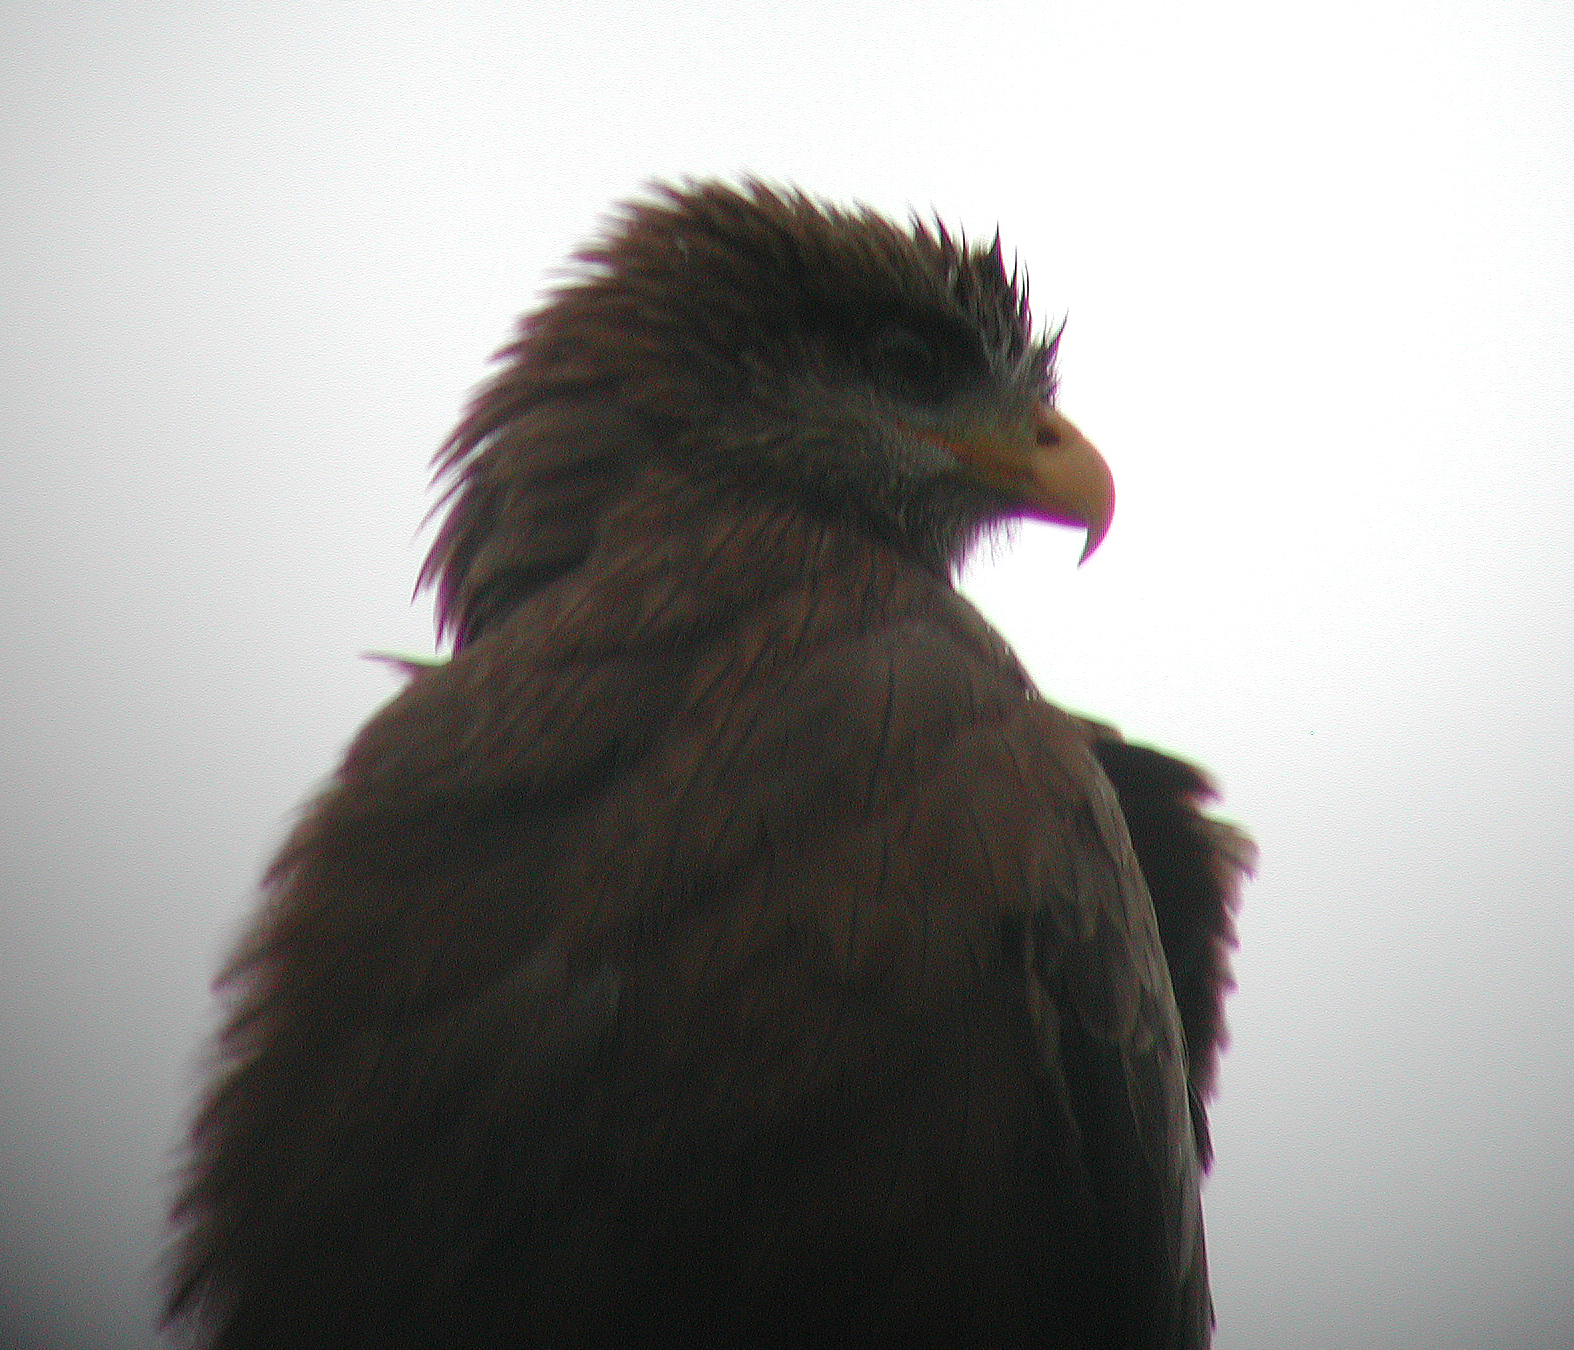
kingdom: Animalia
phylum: Chordata
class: Aves
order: Accipitriformes
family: Accipitridae
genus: Milvus
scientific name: Milvus migrans
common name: Black kite
